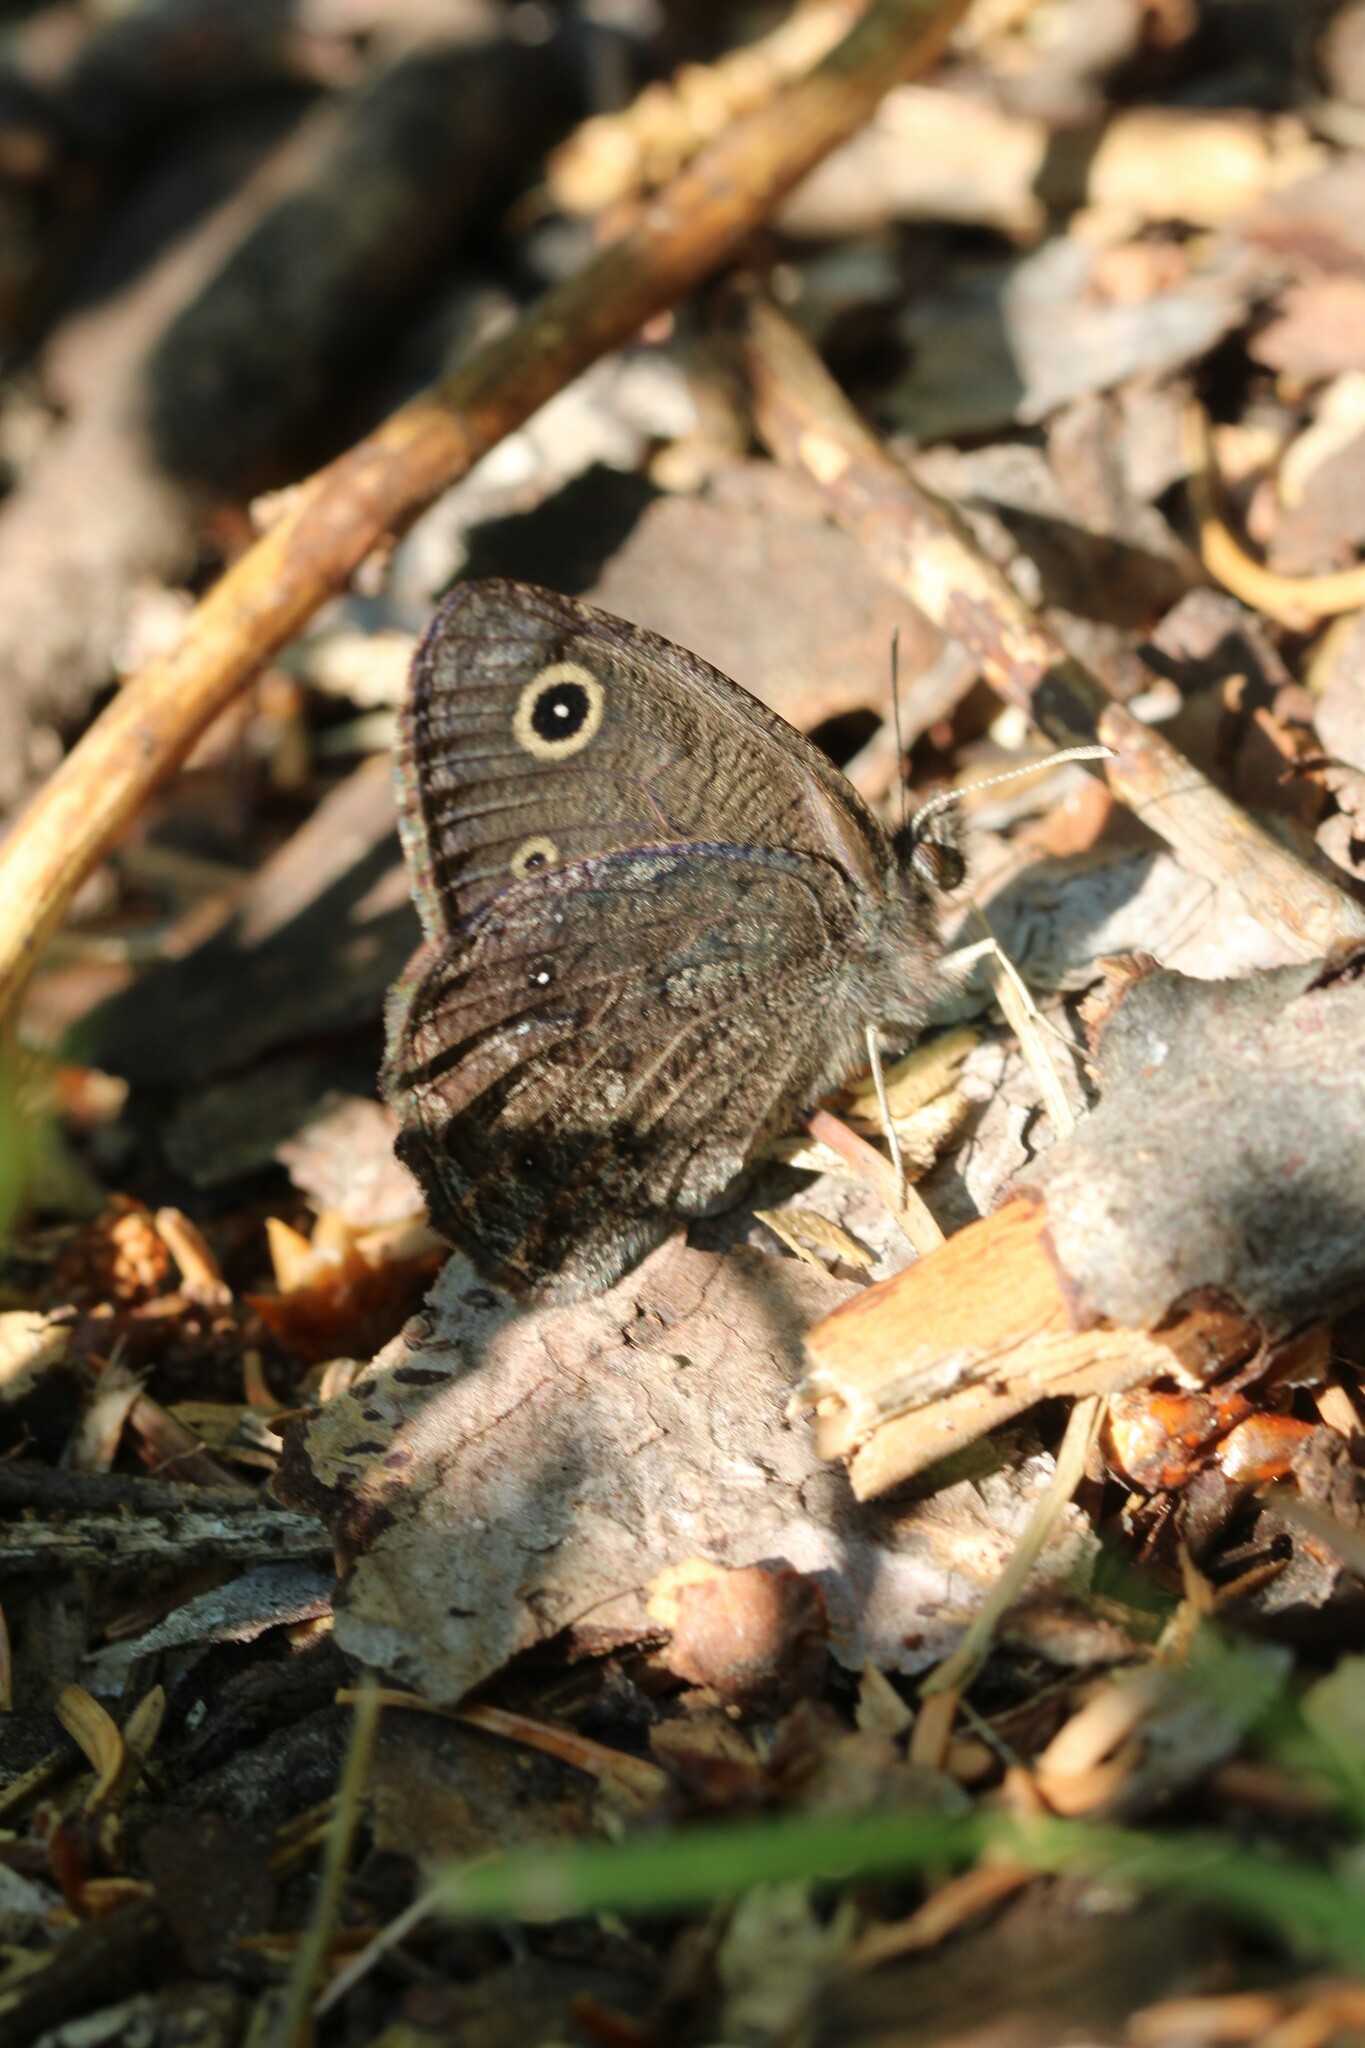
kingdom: Animalia
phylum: Arthropoda
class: Insecta
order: Lepidoptera
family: Nymphalidae
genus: Cercyonis
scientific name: Cercyonis oetus
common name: Small wood-nymph
